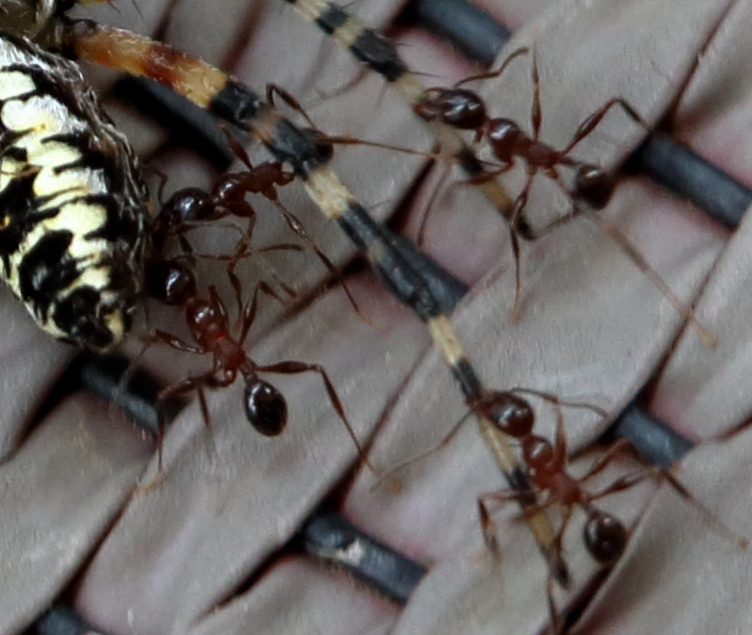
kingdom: Animalia
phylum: Arthropoda
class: Insecta
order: Hymenoptera
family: Formicidae
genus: Pheidole
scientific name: Pheidole obscurithorax
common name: Obscure big-headed ant
